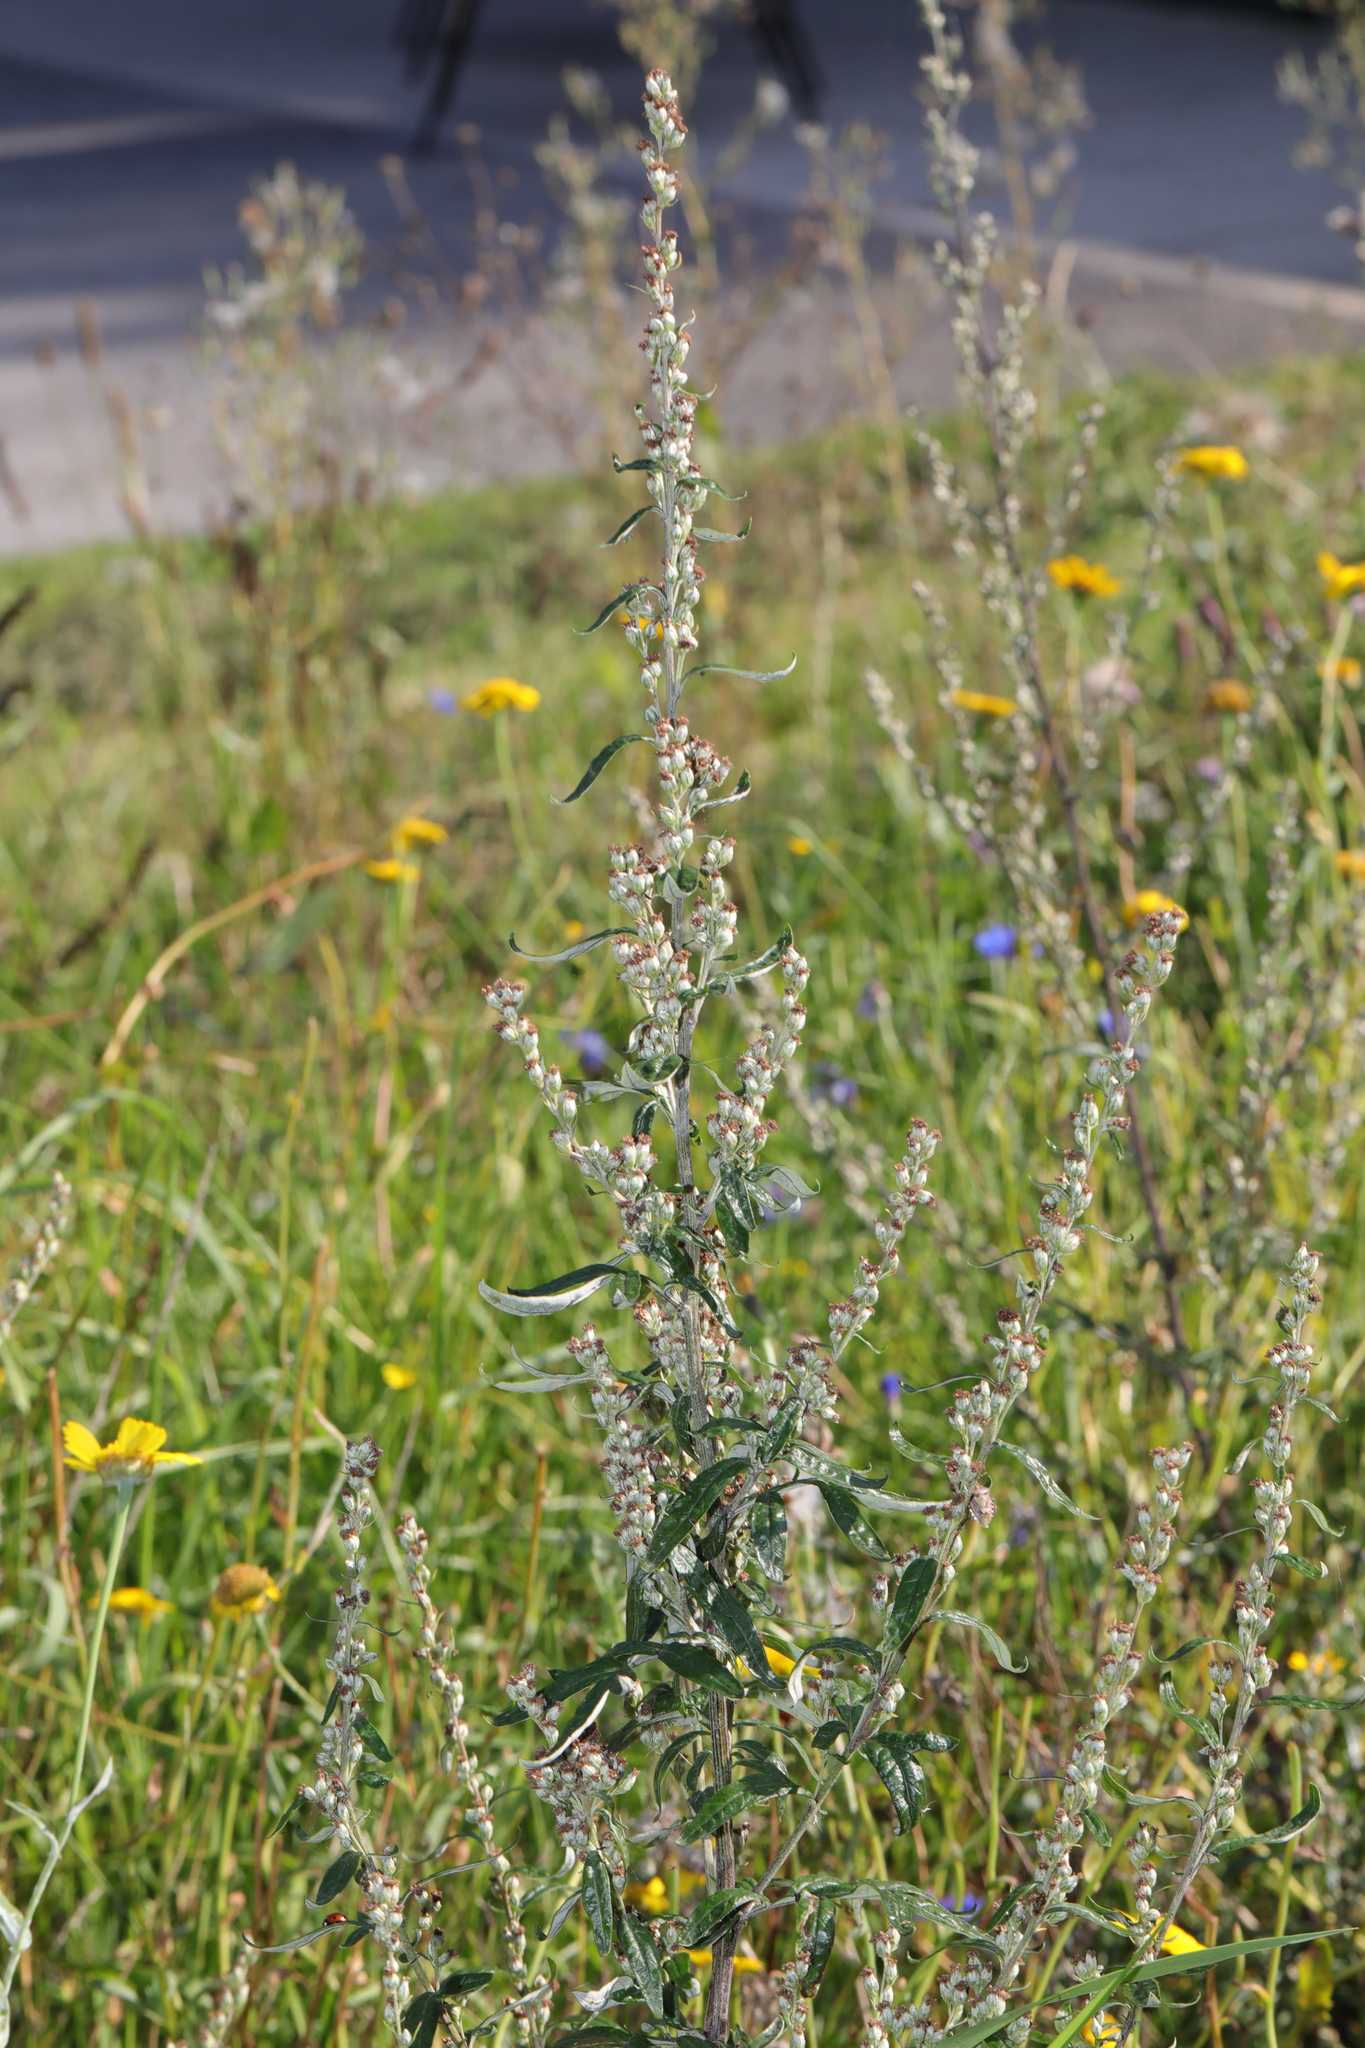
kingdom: Plantae
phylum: Tracheophyta
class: Magnoliopsida
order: Asterales
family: Asteraceae
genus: Artemisia
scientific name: Artemisia vulgaris
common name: Mugwort
